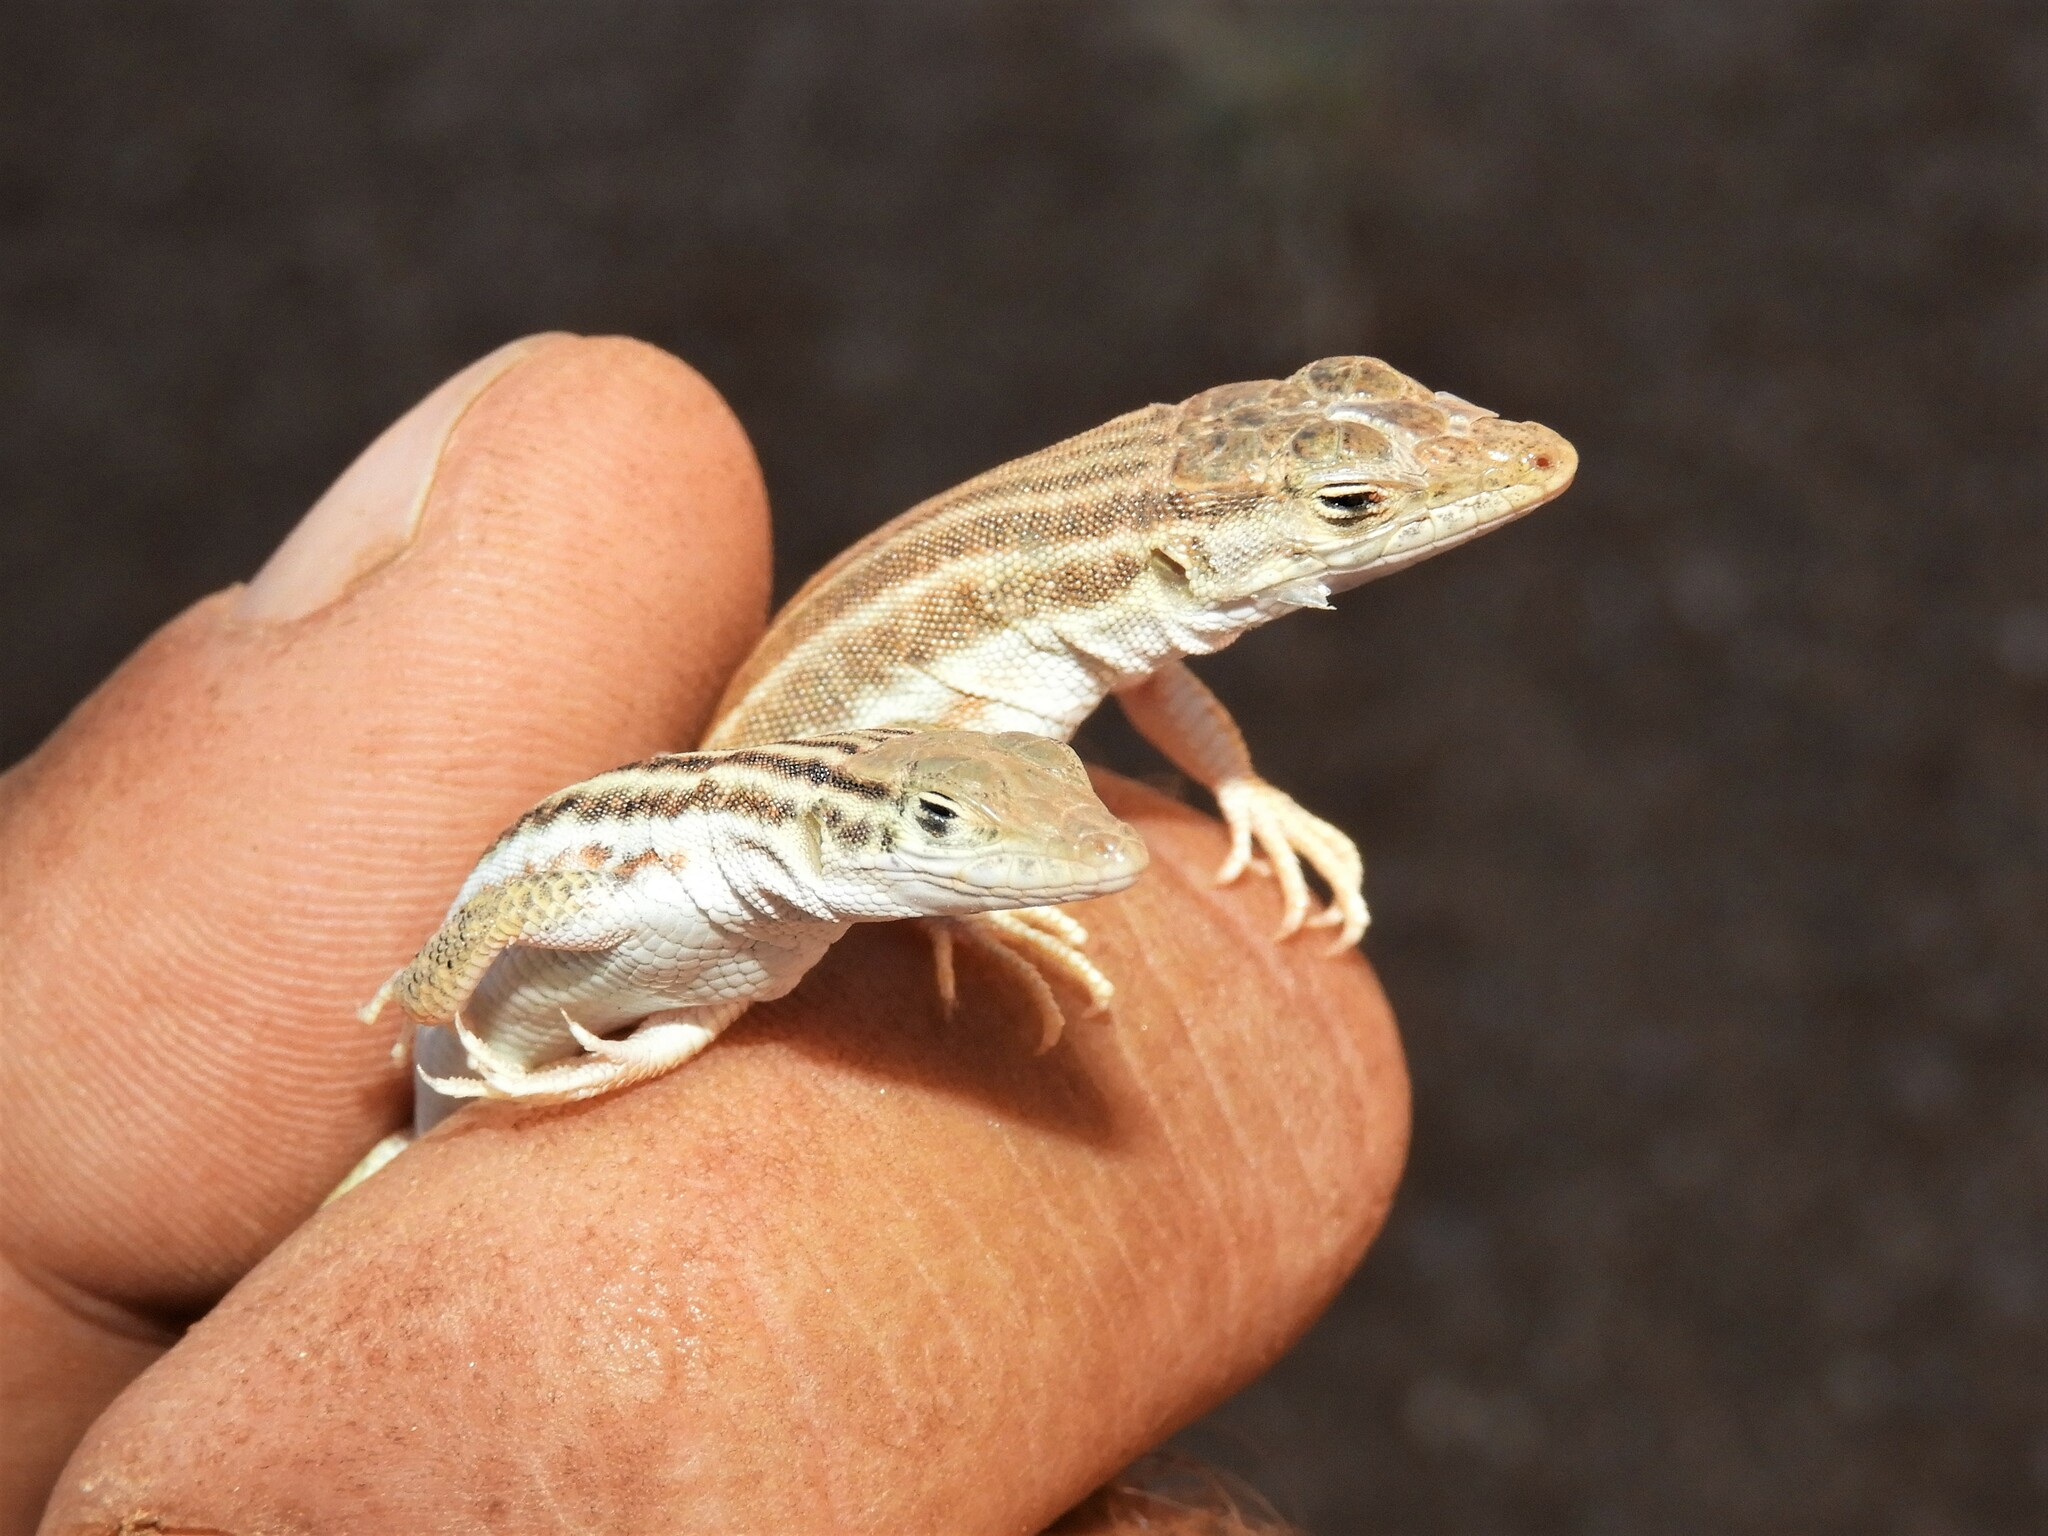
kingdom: Animalia
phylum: Chordata
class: Squamata
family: Lacertidae
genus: Pedioplanis
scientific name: Pedioplanis namaquensis
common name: Namaqua sand lizard
